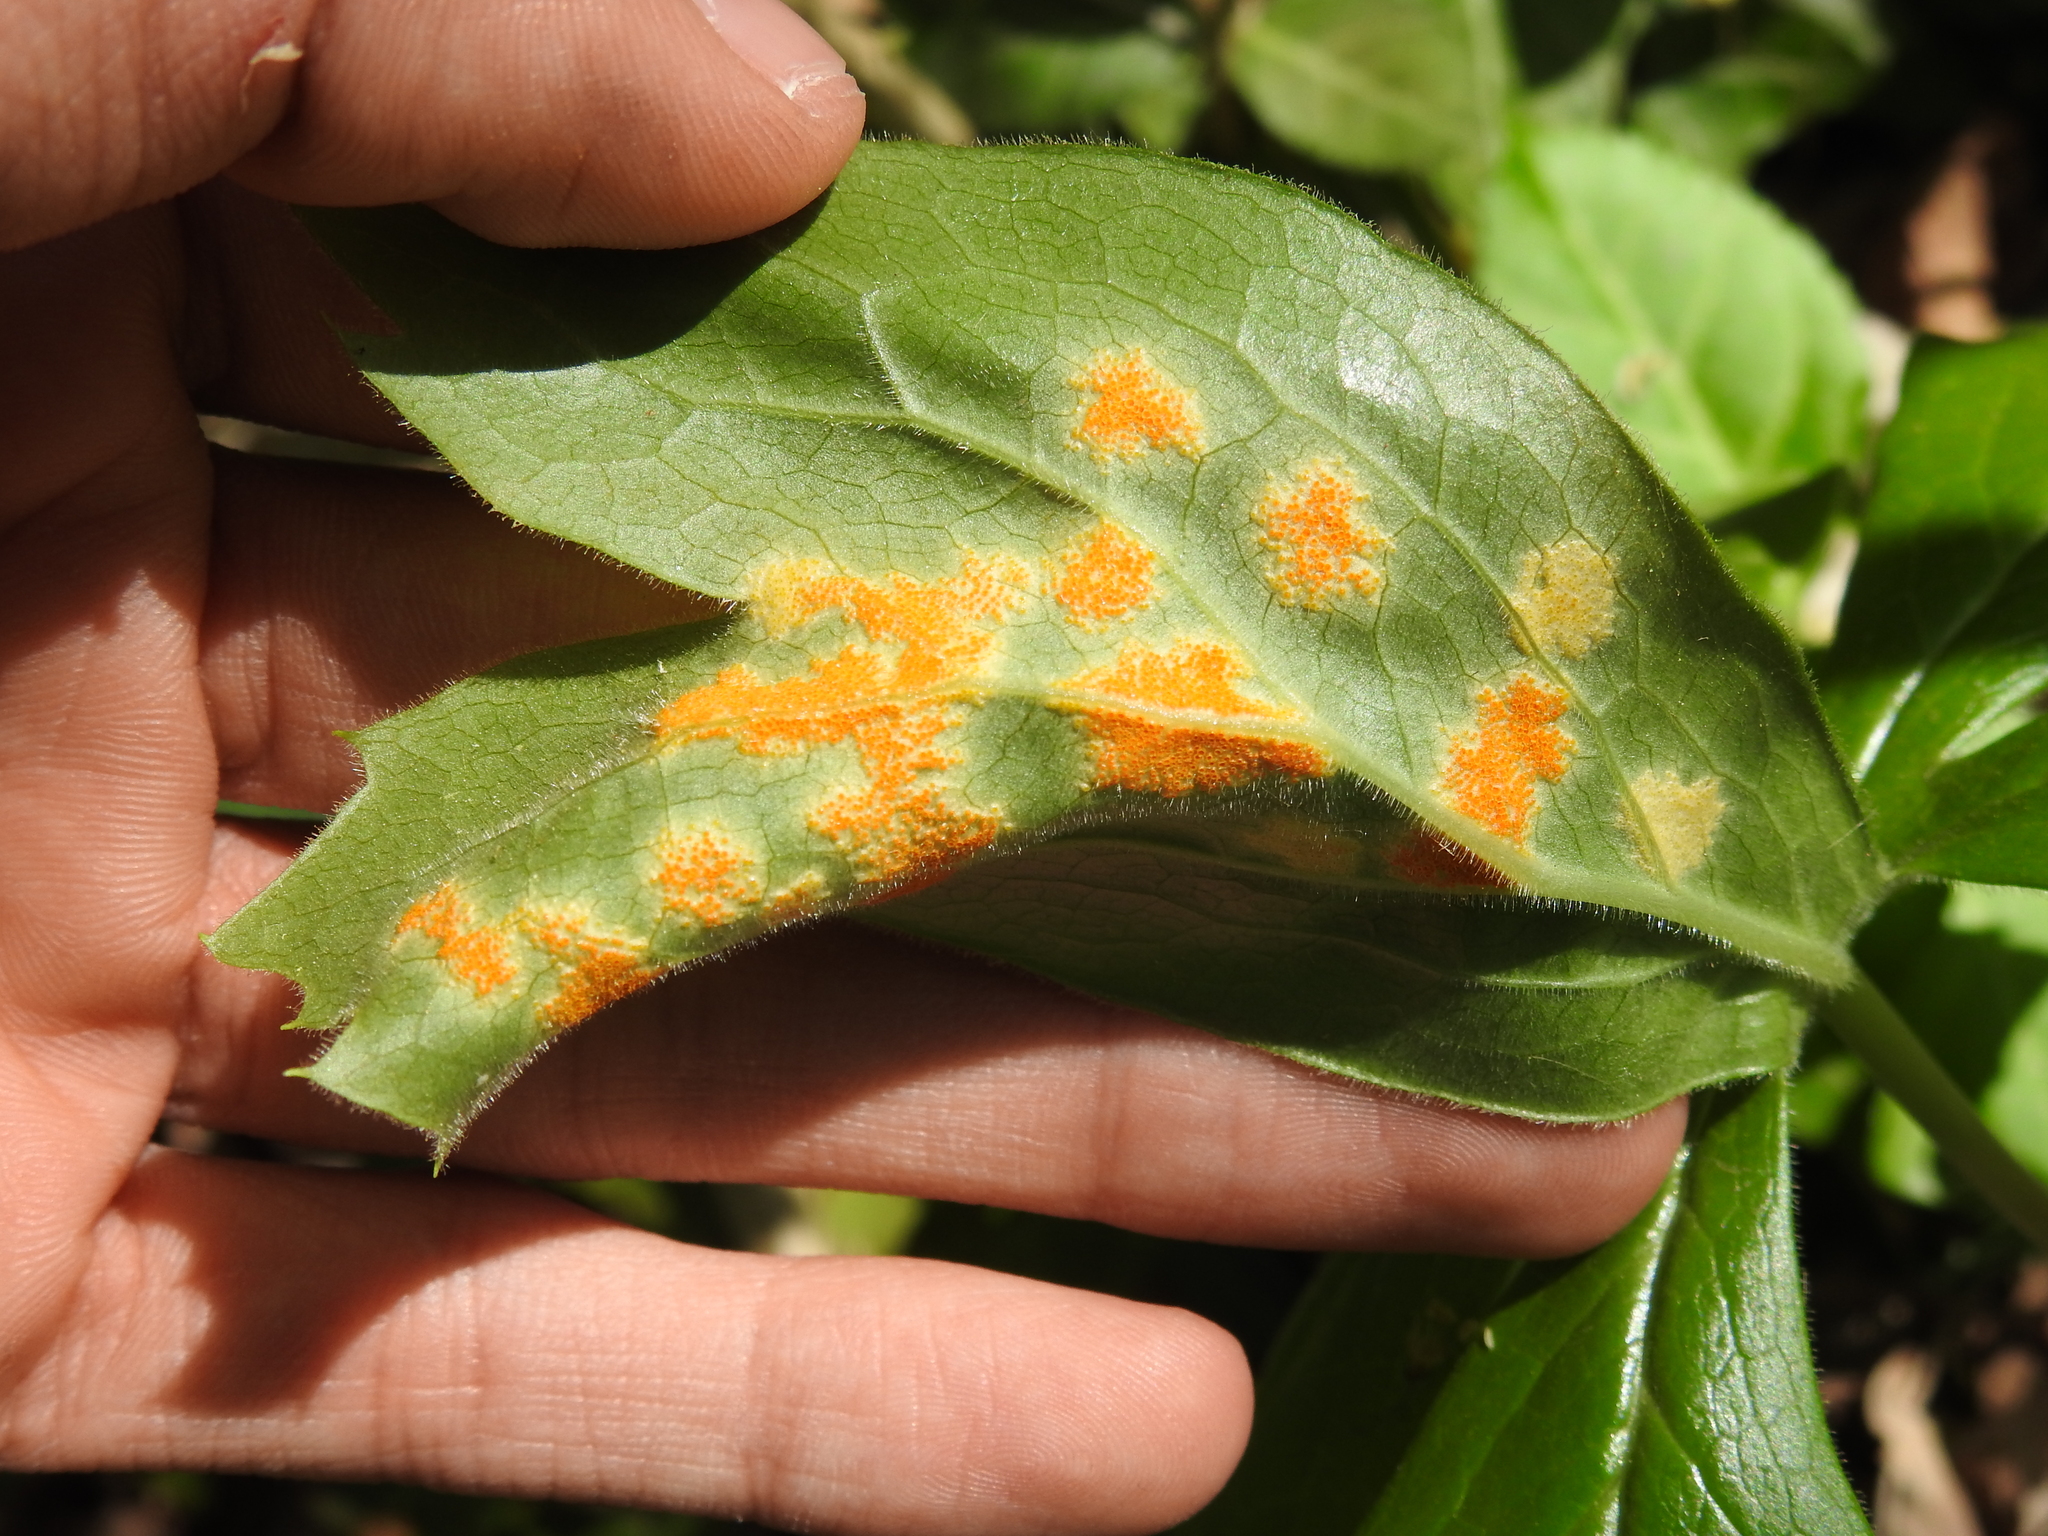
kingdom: Fungi
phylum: Basidiomycota
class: Pucciniomycetes
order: Pucciniales
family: Pucciniaceae
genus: Puccinia
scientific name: Puccinia podophylli
